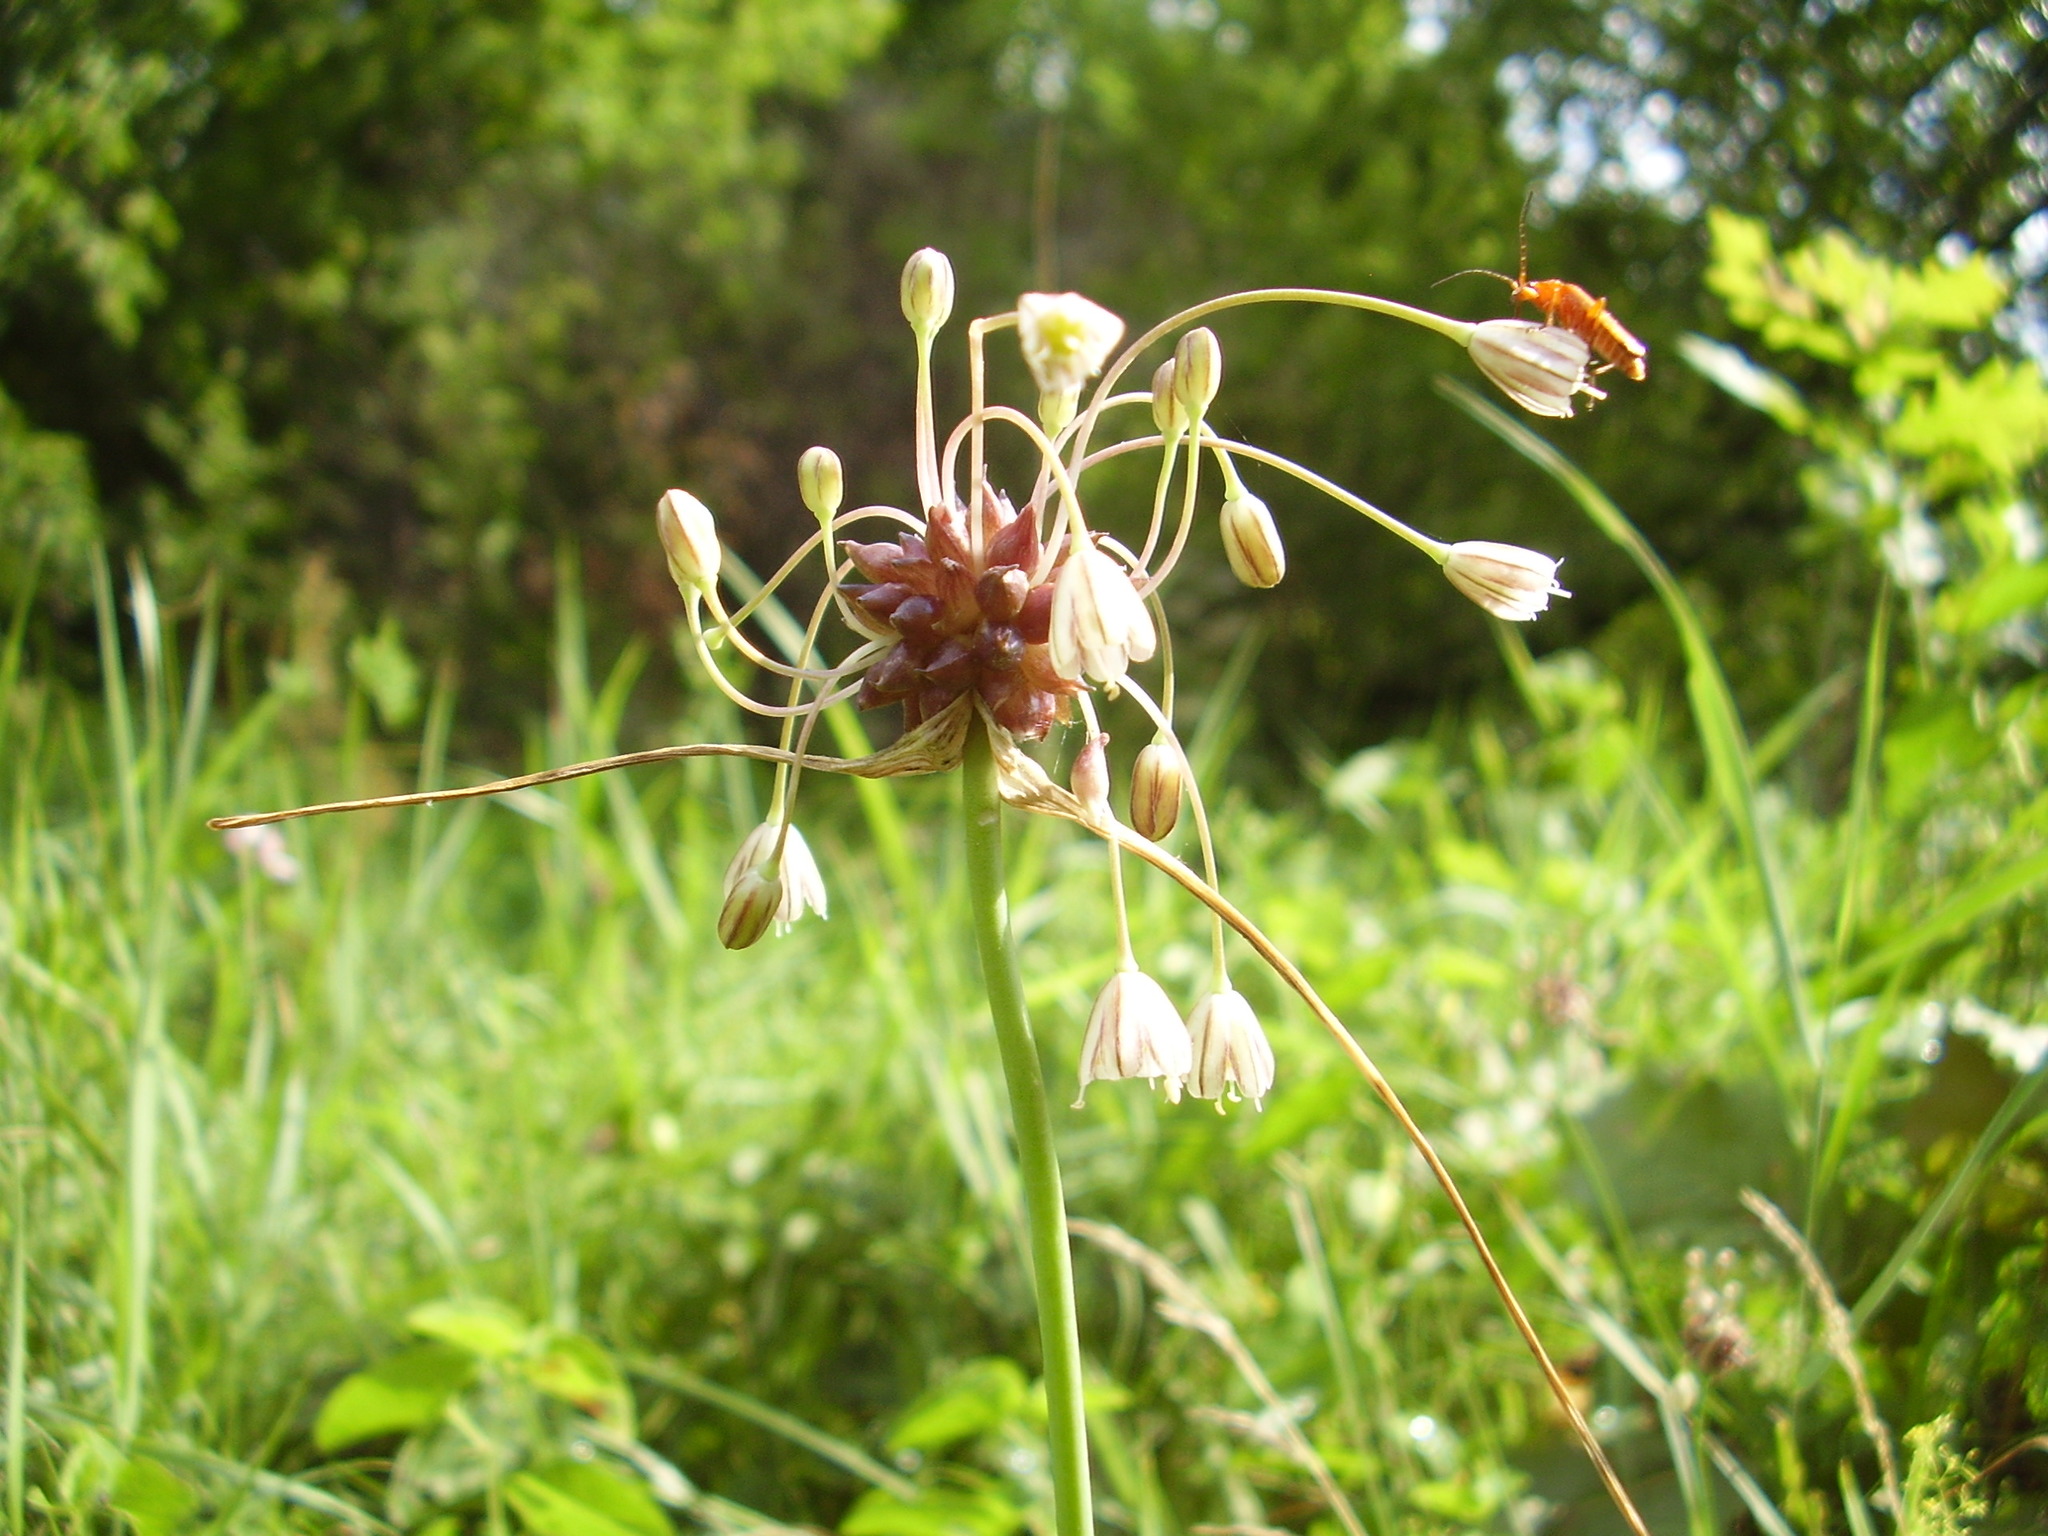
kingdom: Plantae
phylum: Tracheophyta
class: Liliopsida
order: Asparagales
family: Amaryllidaceae
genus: Allium
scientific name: Allium oleraceum
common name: Field garlic
